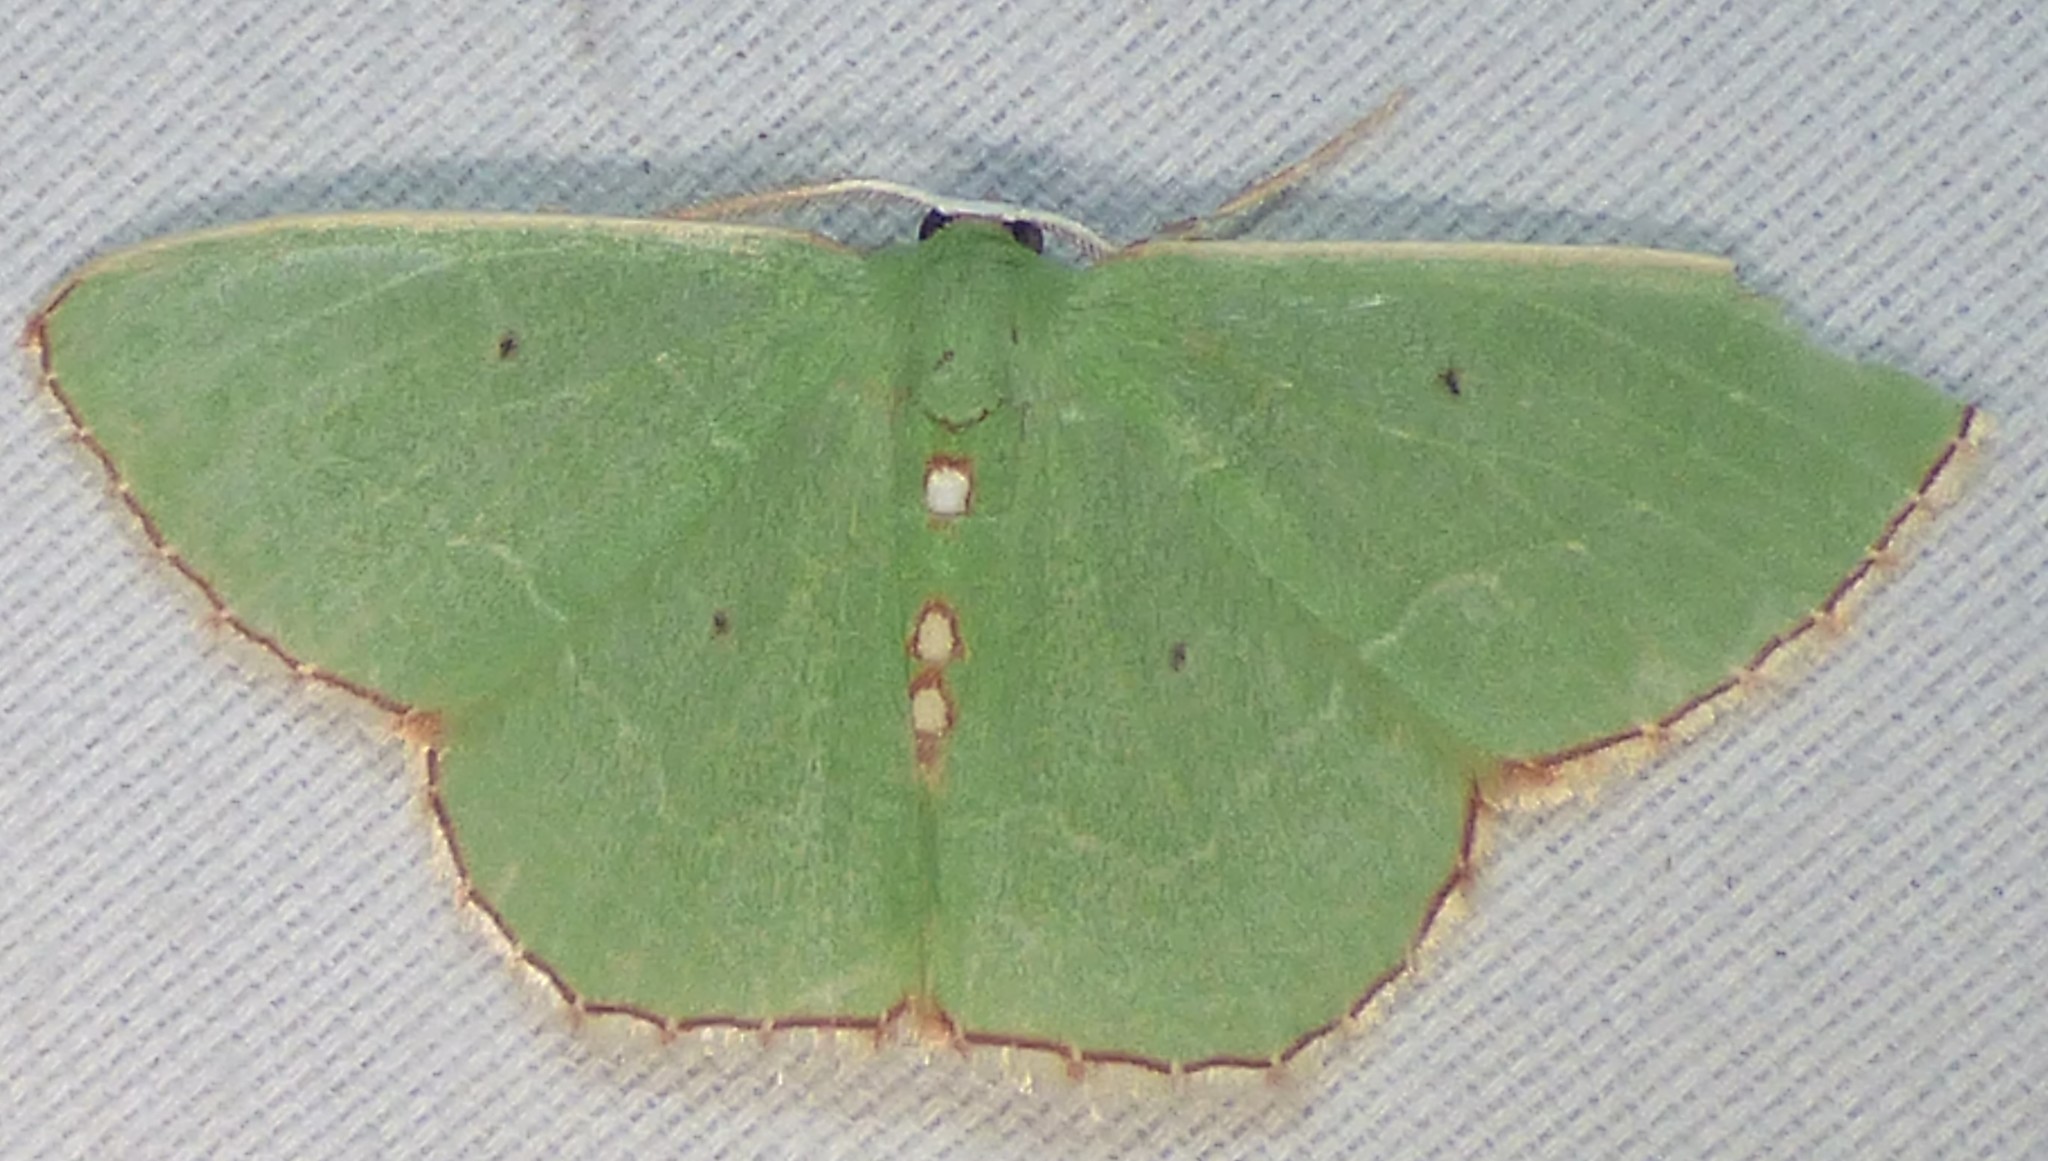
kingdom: Animalia
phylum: Arthropoda
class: Insecta
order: Lepidoptera
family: Geometridae
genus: Nemoria
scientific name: Nemoria lixaria
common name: Red-bordered emerald
